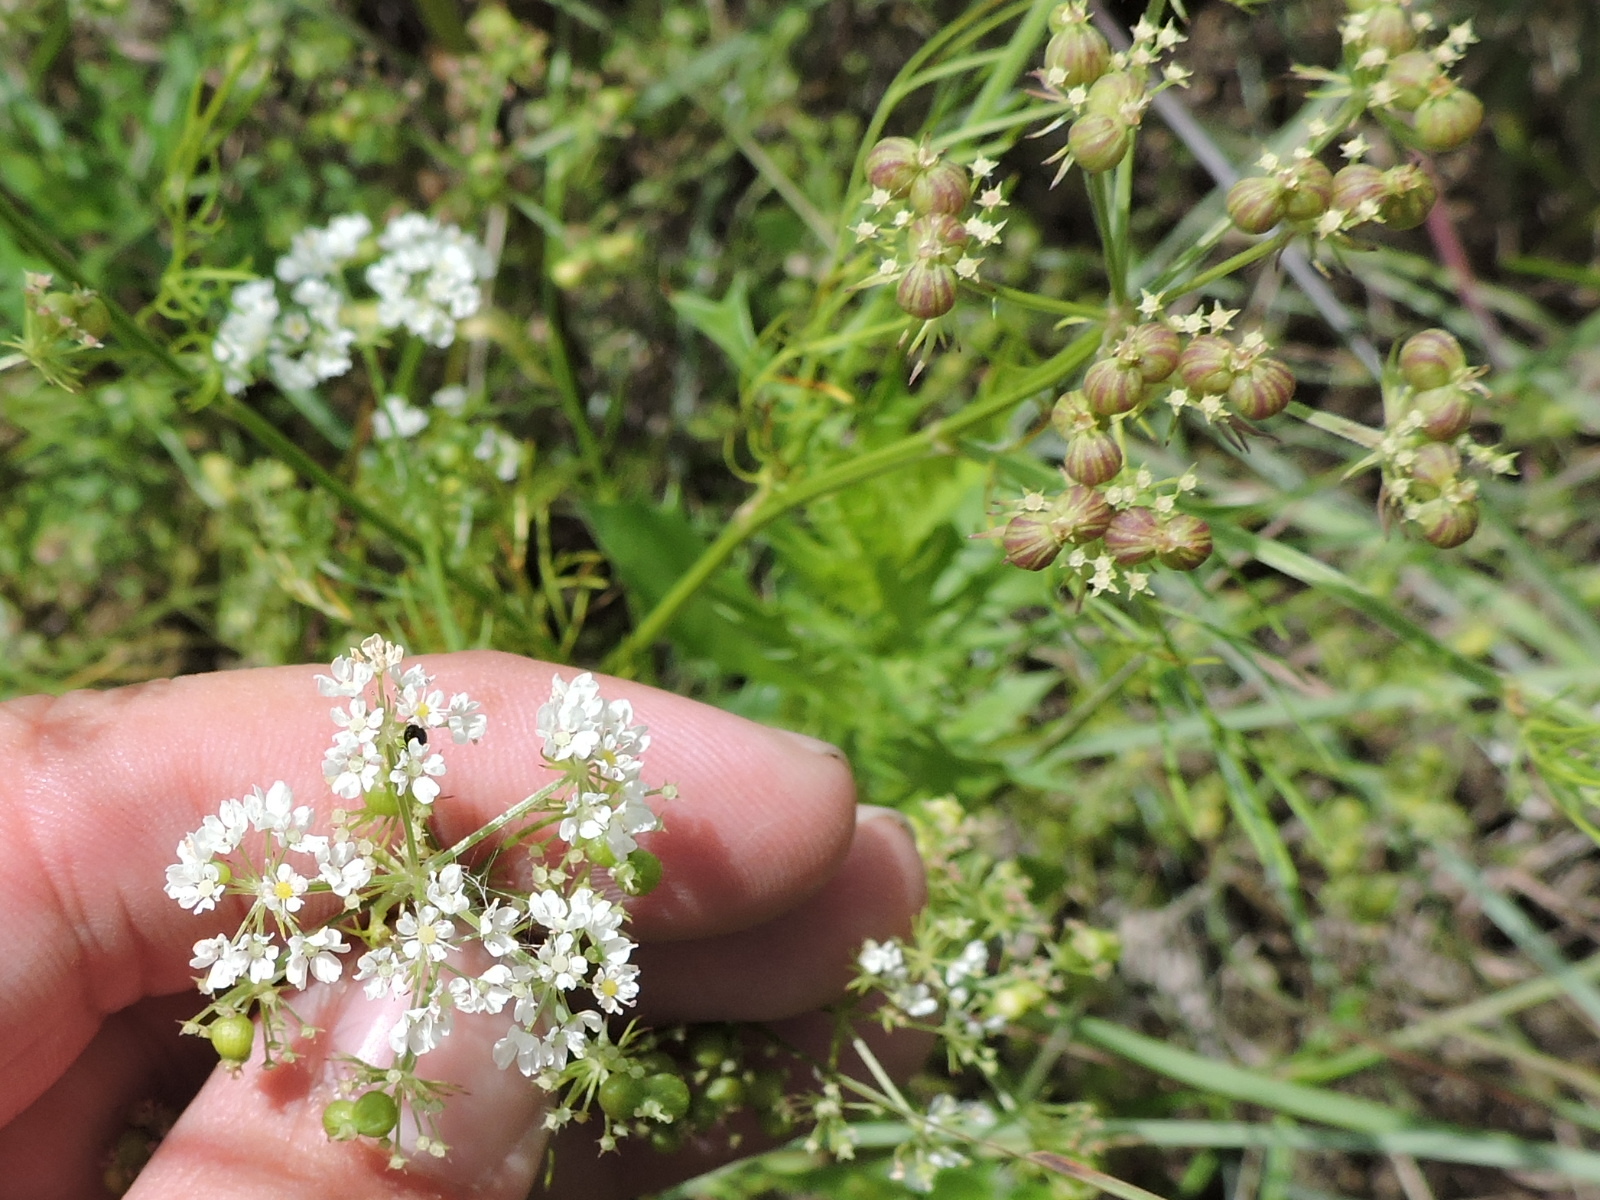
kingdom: Plantae
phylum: Tracheophyta
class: Magnoliopsida
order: Apiales
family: Apiaceae
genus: Atrema
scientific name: Atrema americanum
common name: Prairie-bishop
